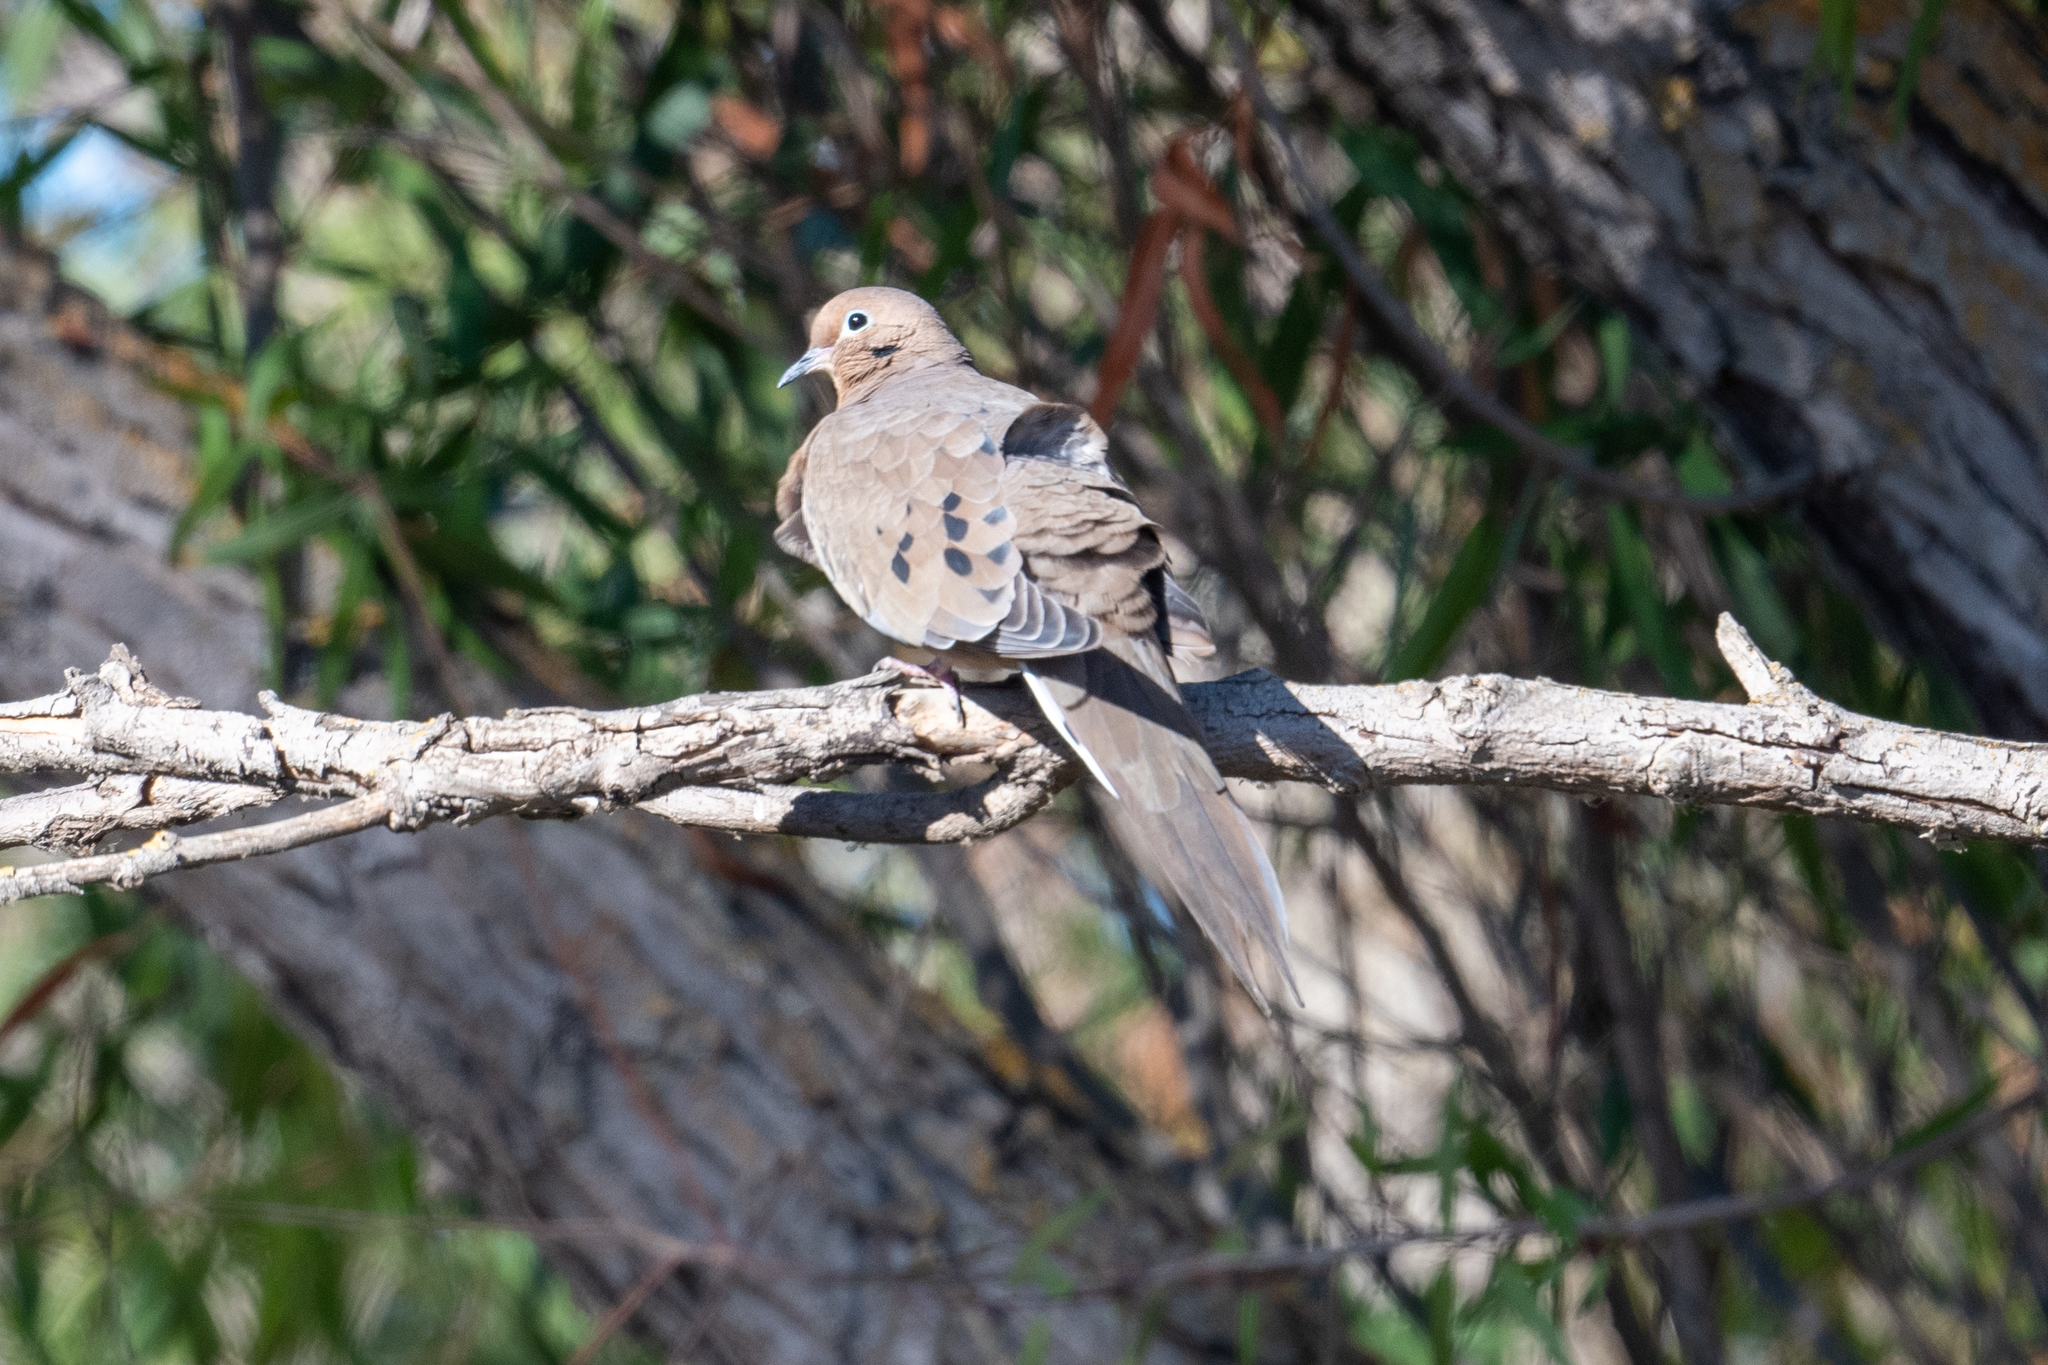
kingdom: Animalia
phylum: Chordata
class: Aves
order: Columbiformes
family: Columbidae
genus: Zenaida
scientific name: Zenaida macroura
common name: Mourning dove
